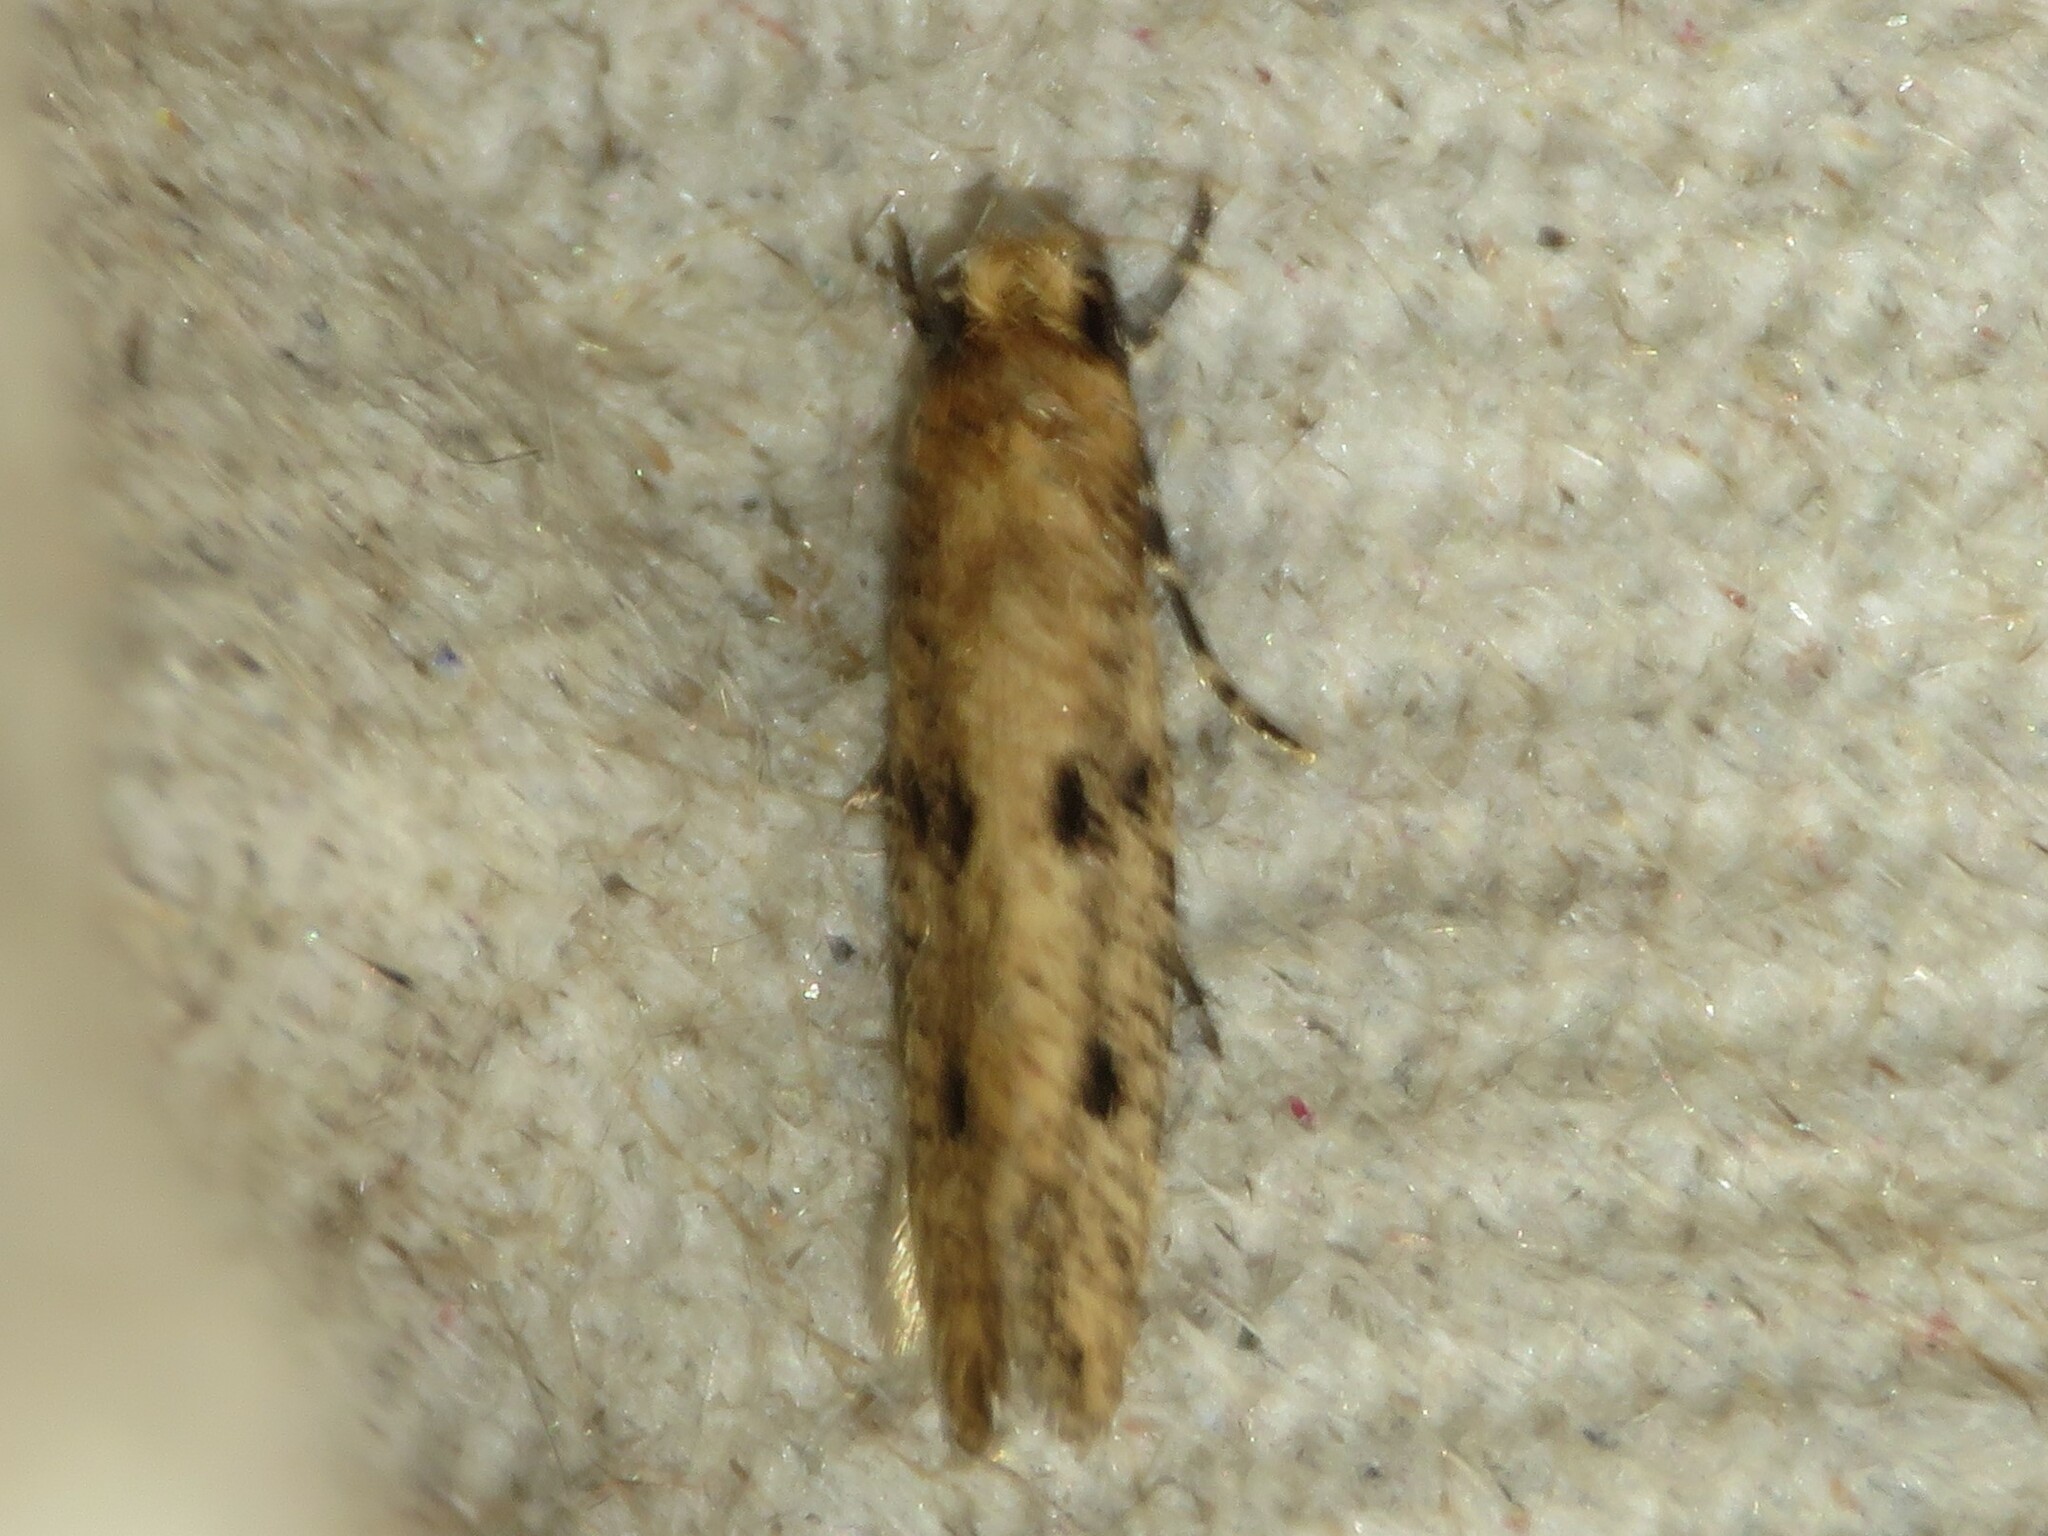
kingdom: Animalia
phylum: Arthropoda
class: Insecta
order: Lepidoptera
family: Tineidae
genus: Niditinea
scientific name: Niditinea sabroskyi
